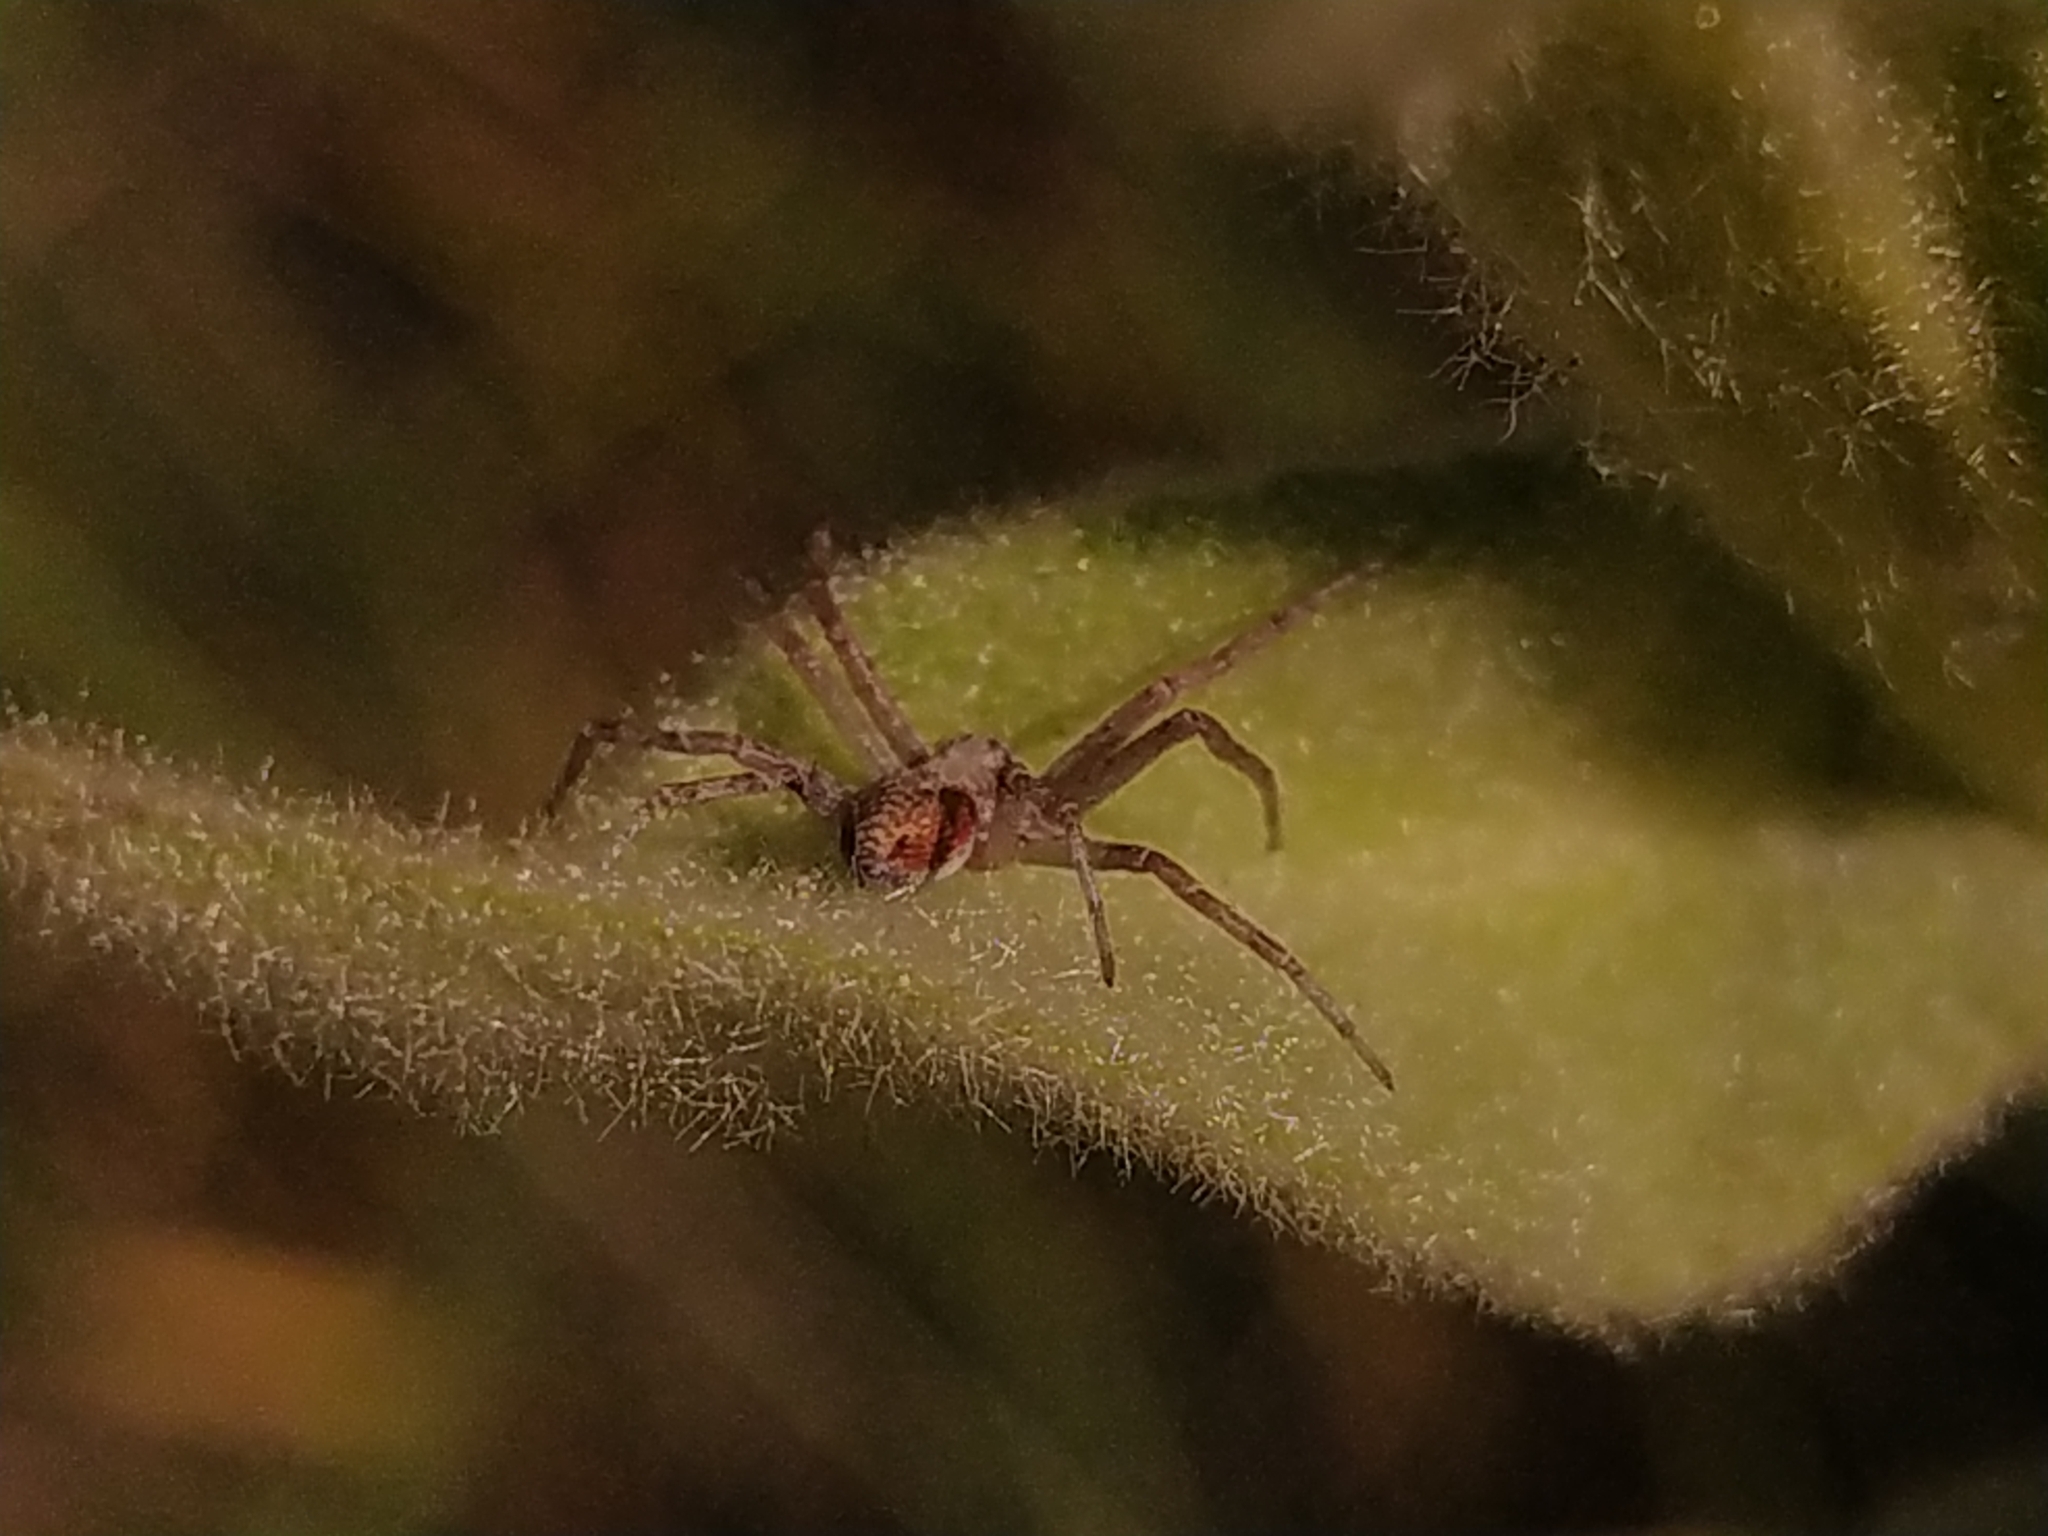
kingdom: Animalia
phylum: Arthropoda
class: Arachnida
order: Araneae
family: Philodromidae
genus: Philodromus
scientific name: Philodromus
